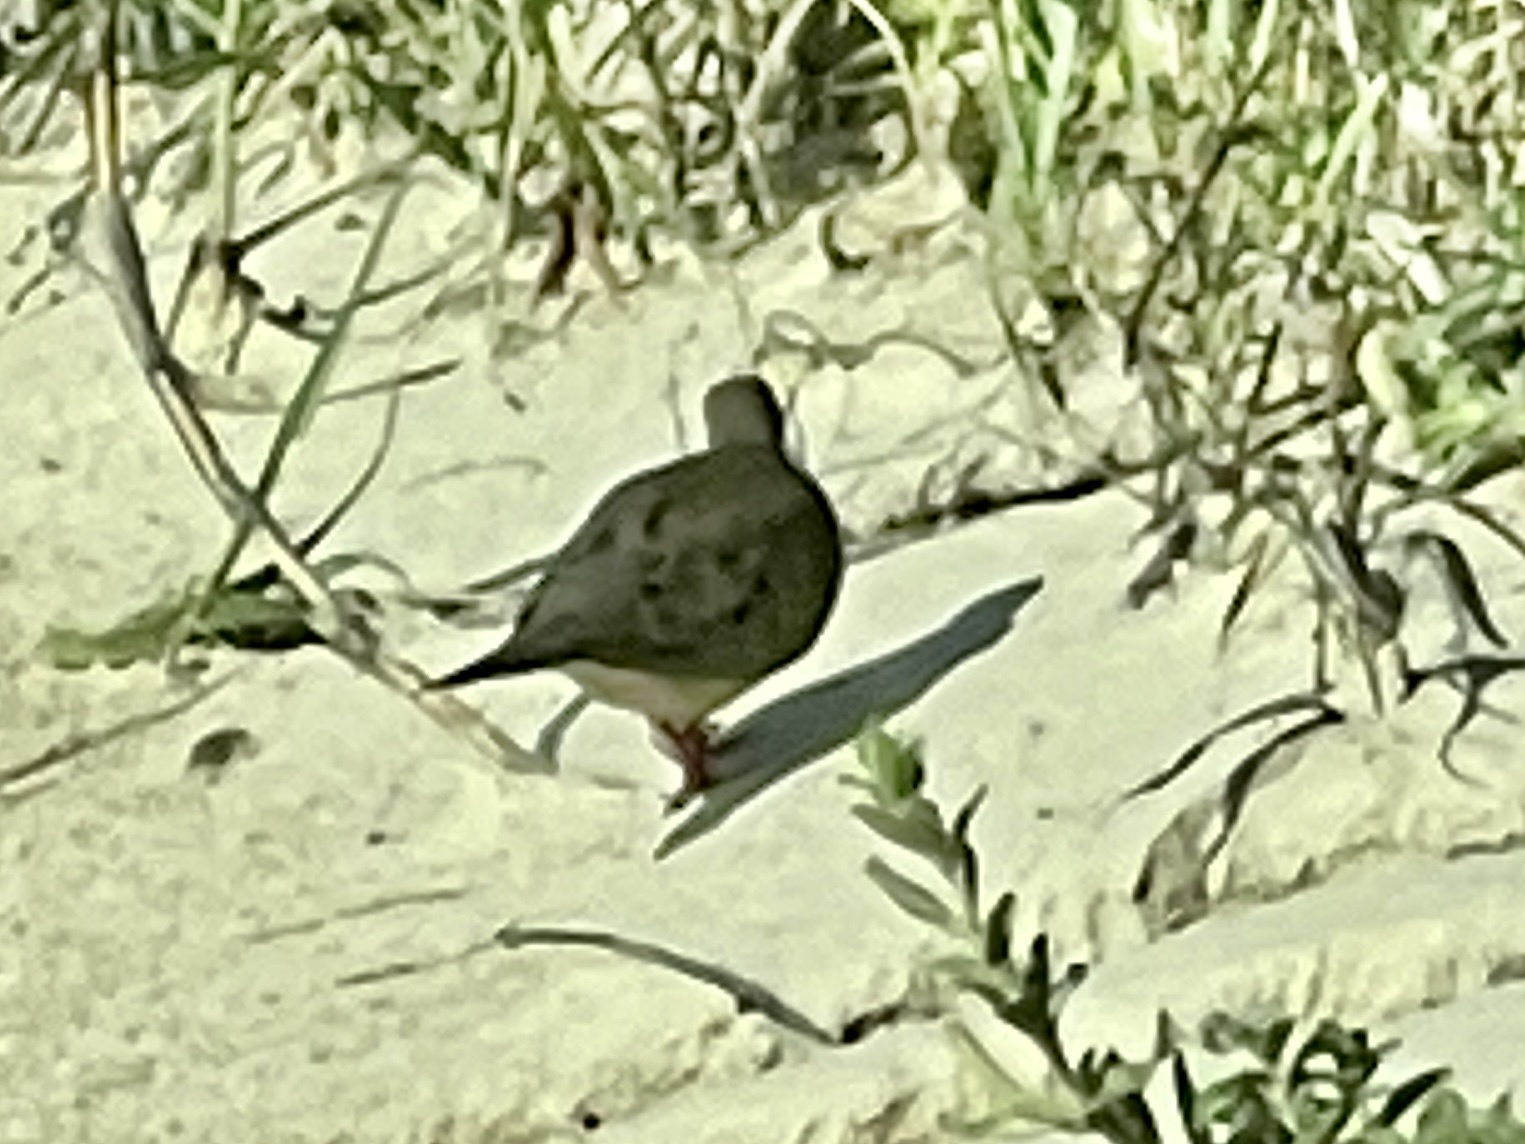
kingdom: Animalia
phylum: Chordata
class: Aves
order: Columbiformes
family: Columbidae
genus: Zenaida
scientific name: Zenaida macroura
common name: Mourning dove
